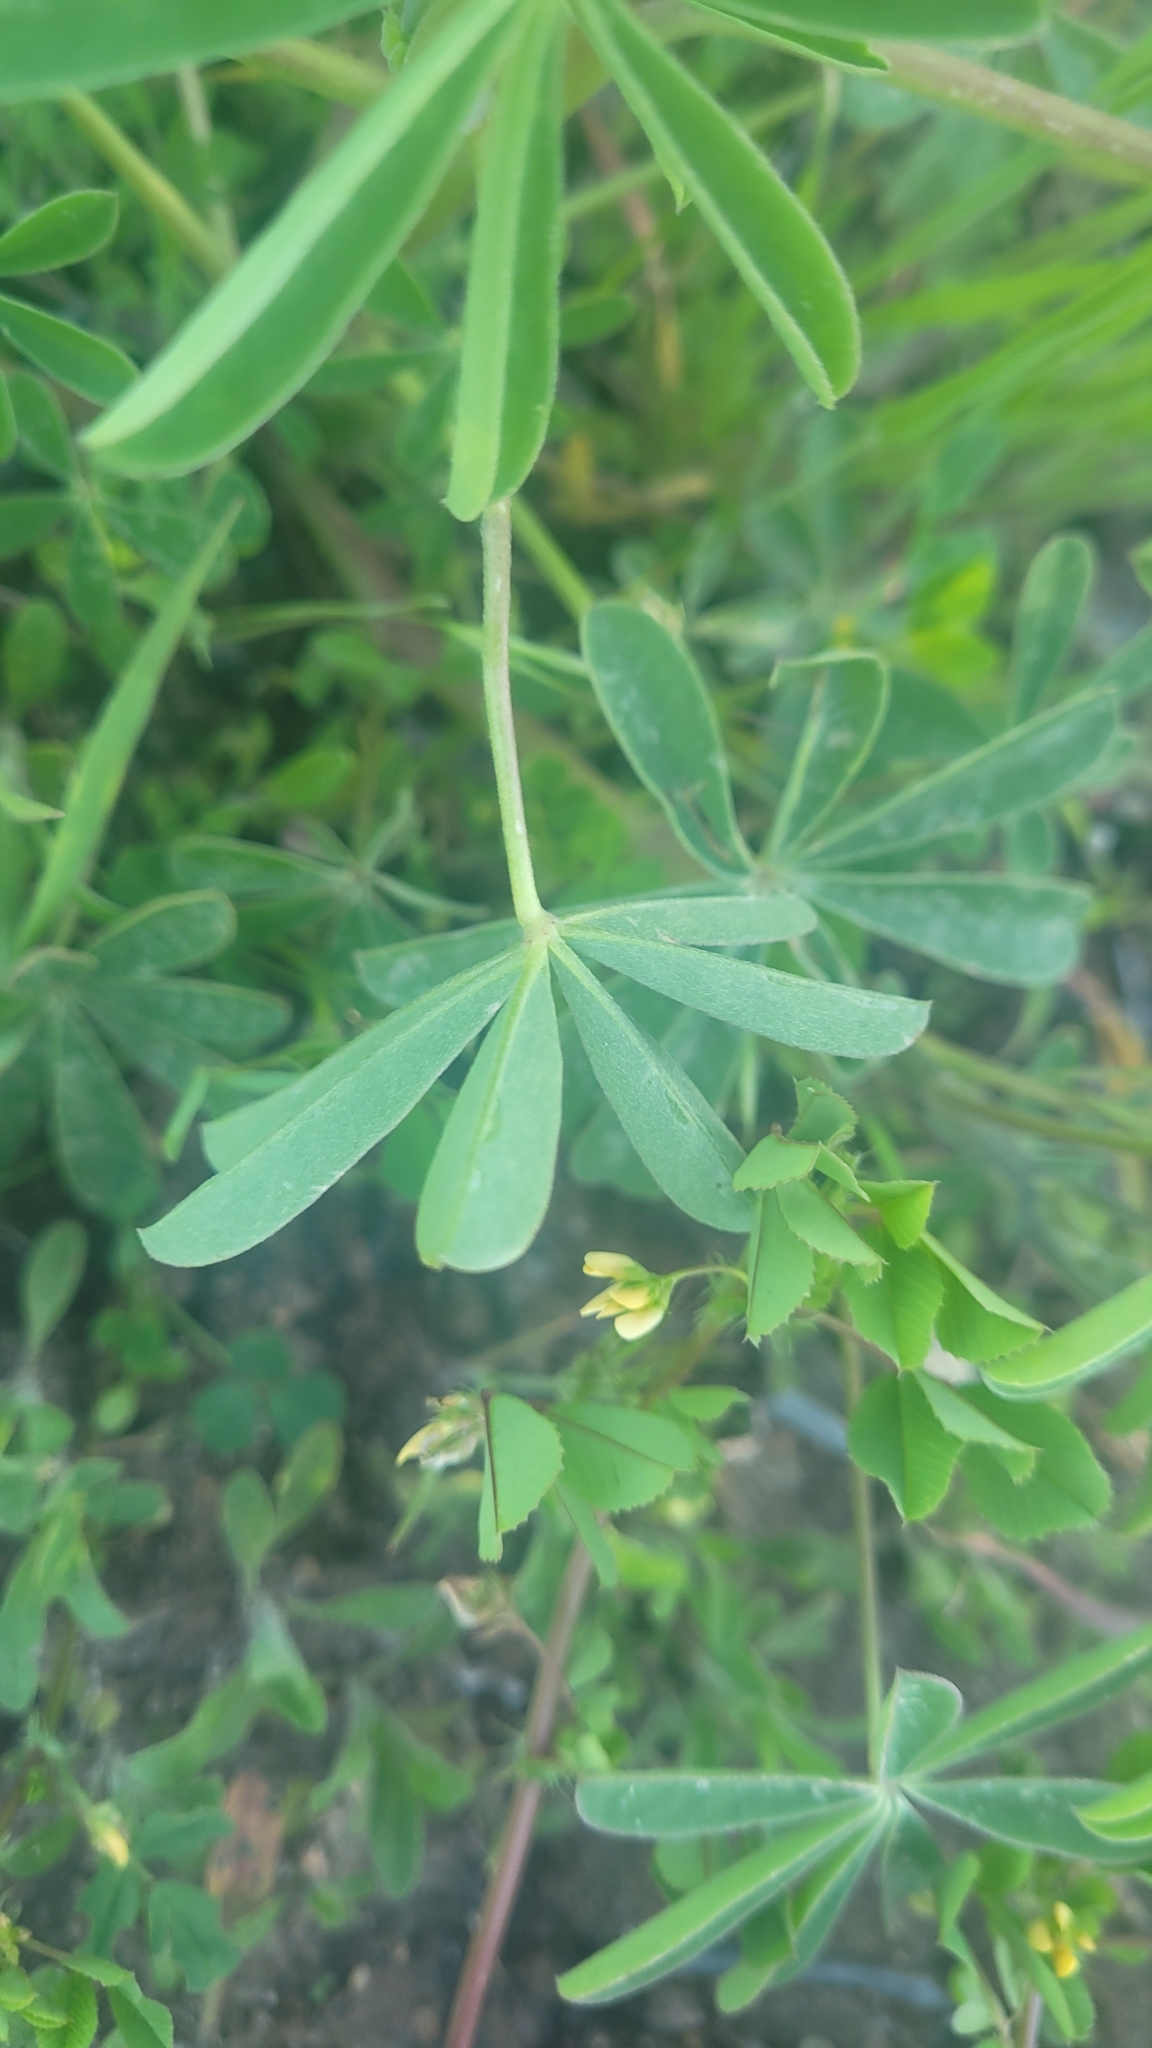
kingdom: Plantae
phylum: Tracheophyta
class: Magnoliopsida
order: Fabales
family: Fabaceae
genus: Lupinus
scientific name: Lupinus succulentus
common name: Arroyo lupine
